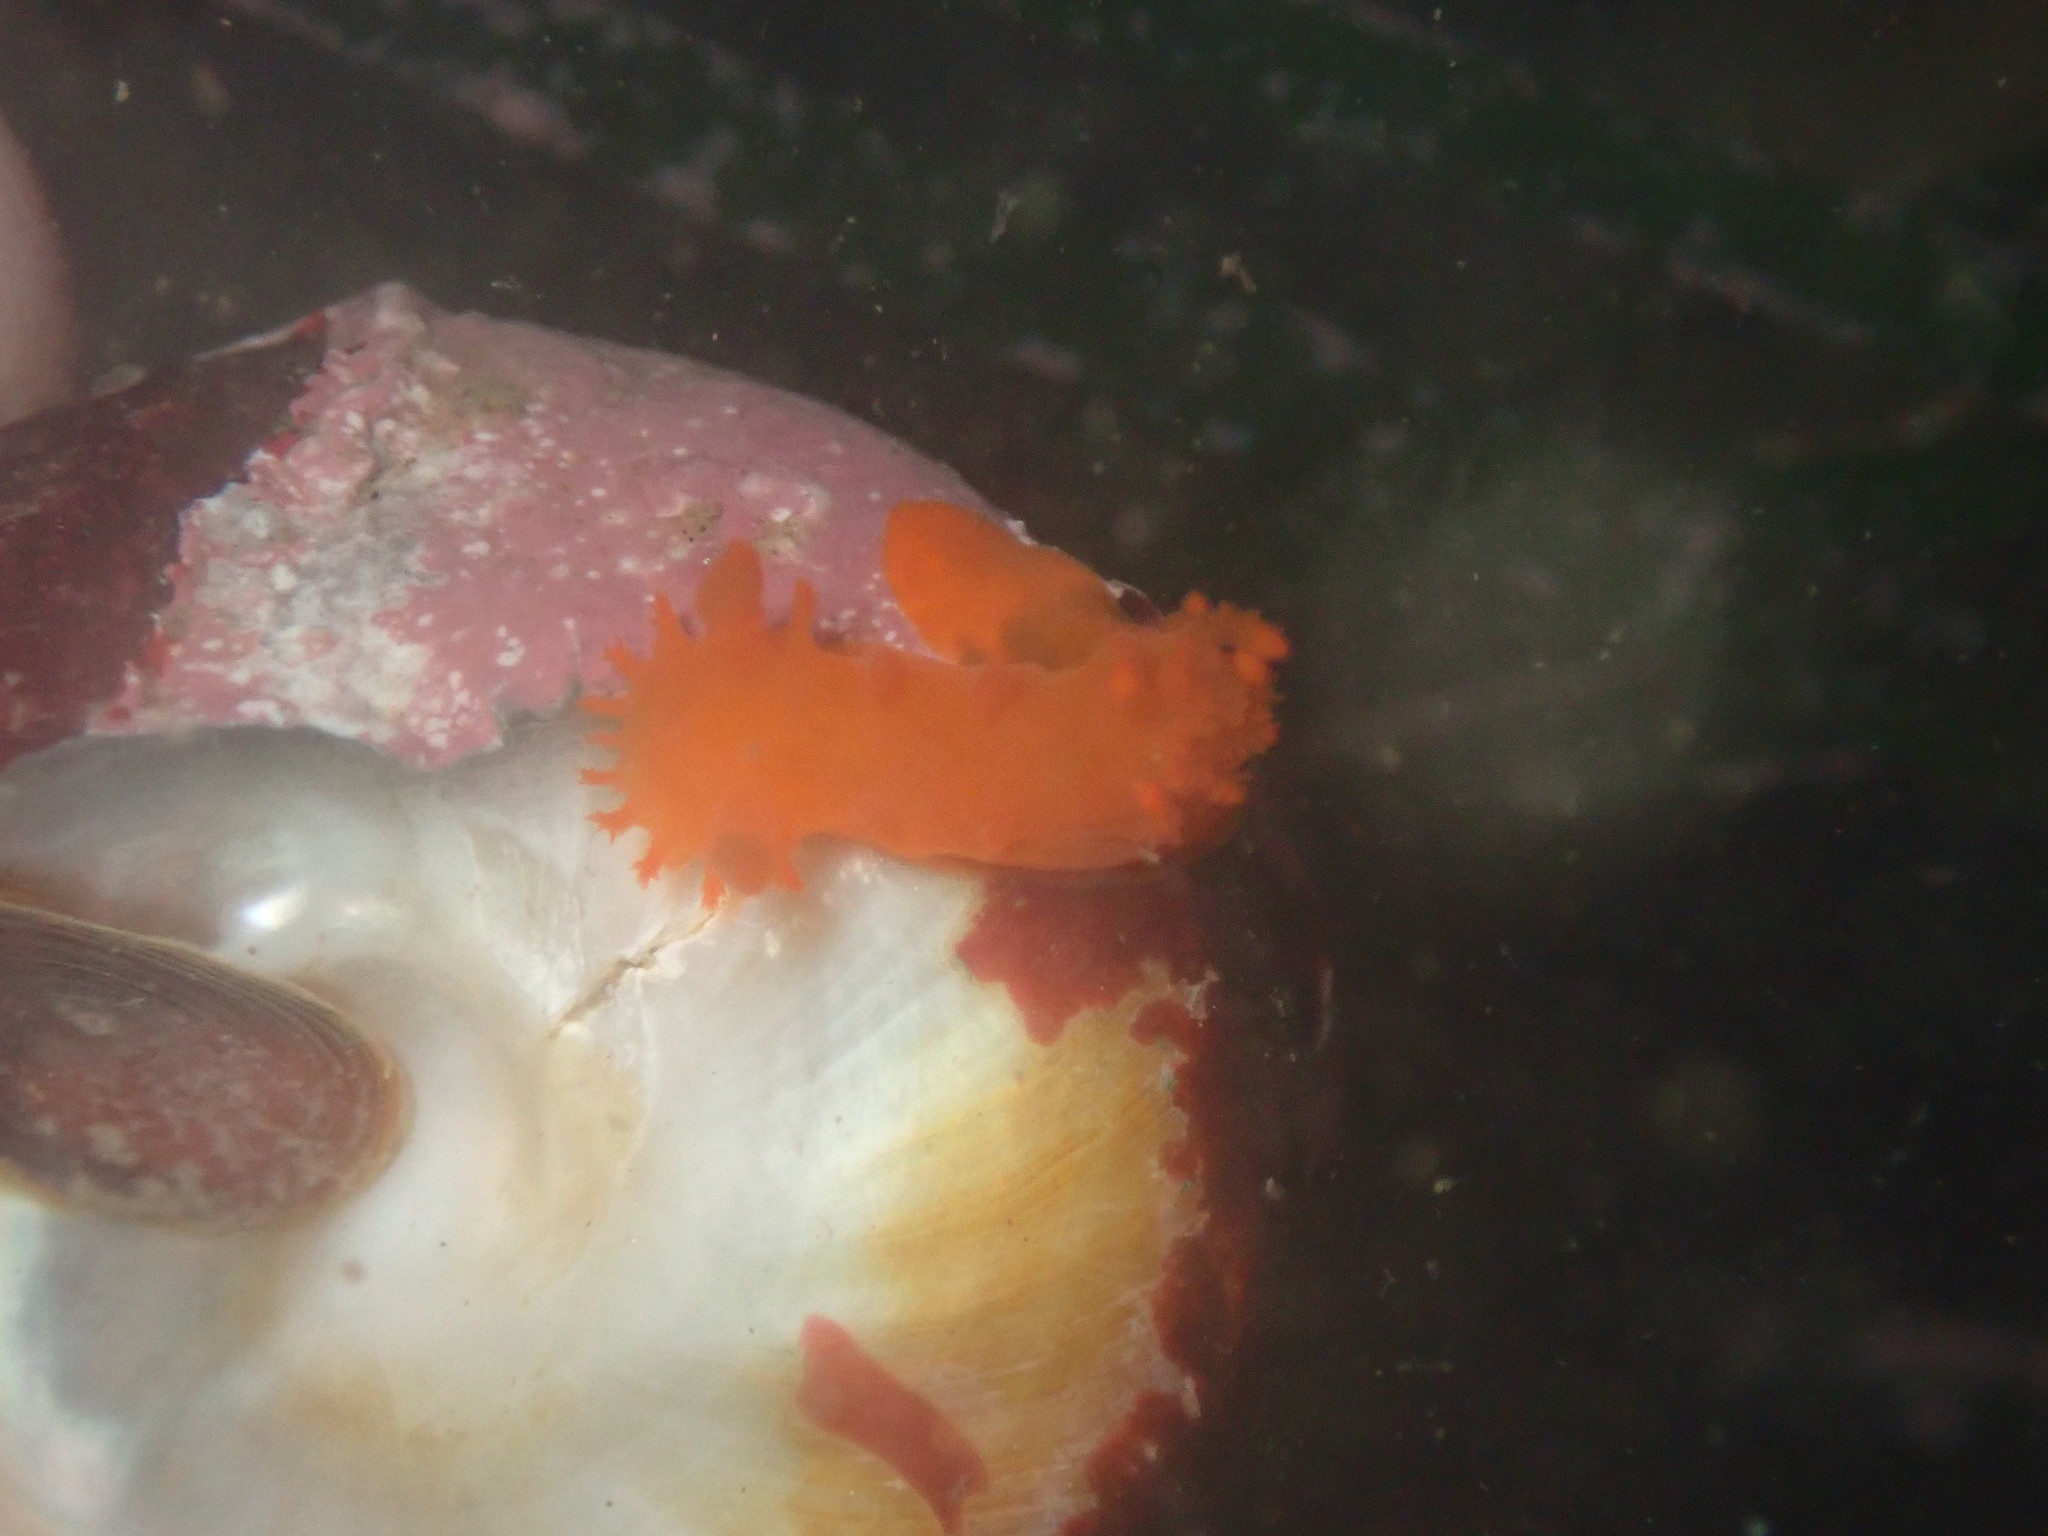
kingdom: Animalia
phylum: Mollusca
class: Gastropoda
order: Nudibranchia
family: Polyceridae
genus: Triopha
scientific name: Triopha maculata
